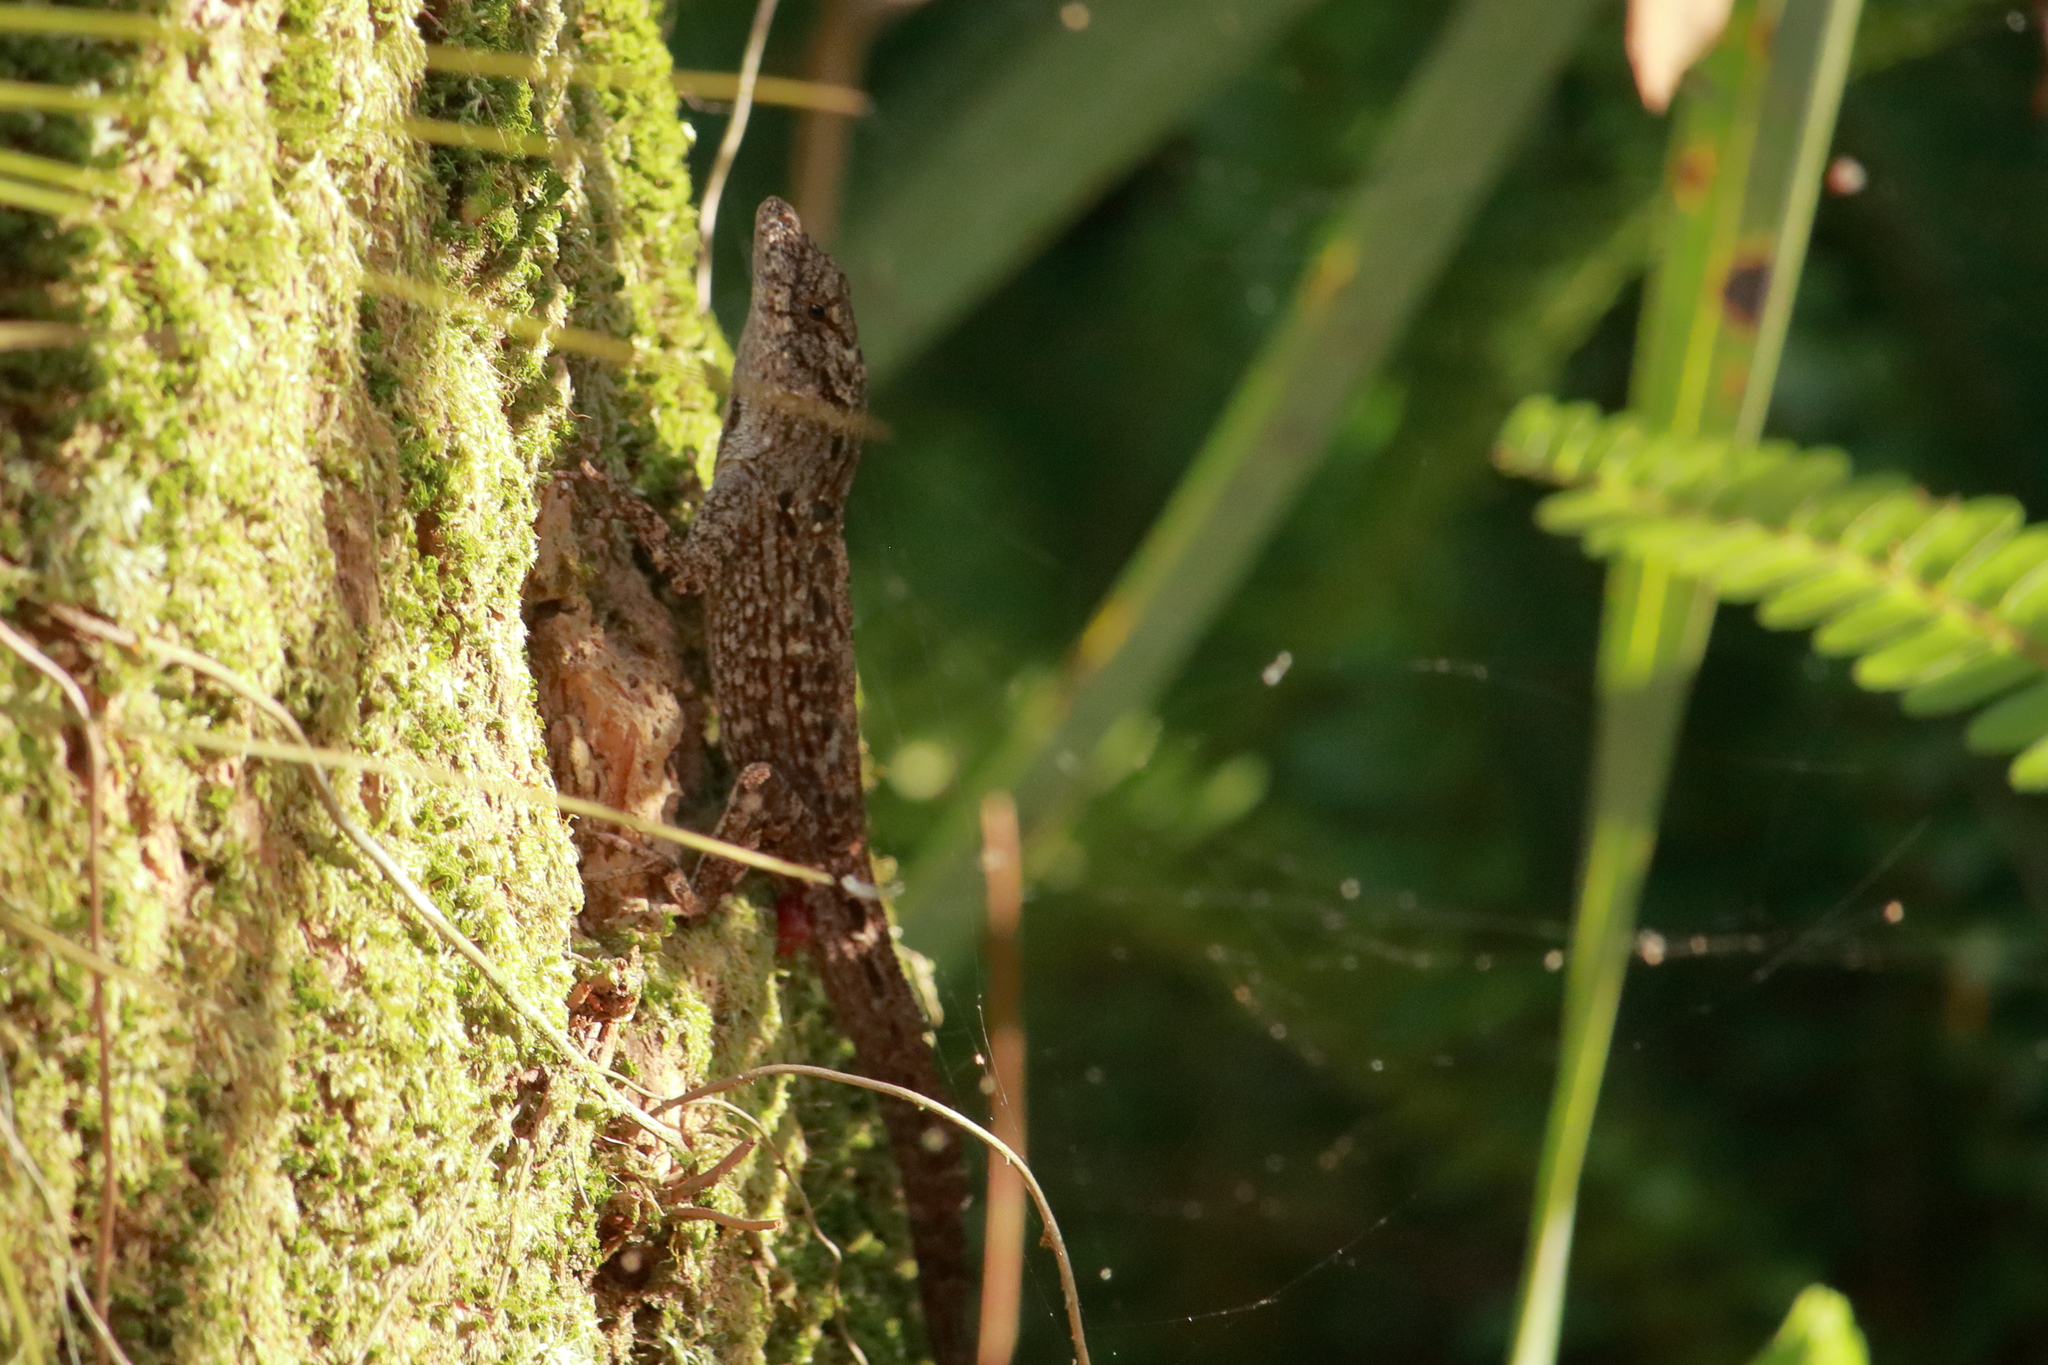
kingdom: Animalia
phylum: Chordata
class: Squamata
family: Dactyloidae
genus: Anolis
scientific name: Anolis sagrei
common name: Brown anole
